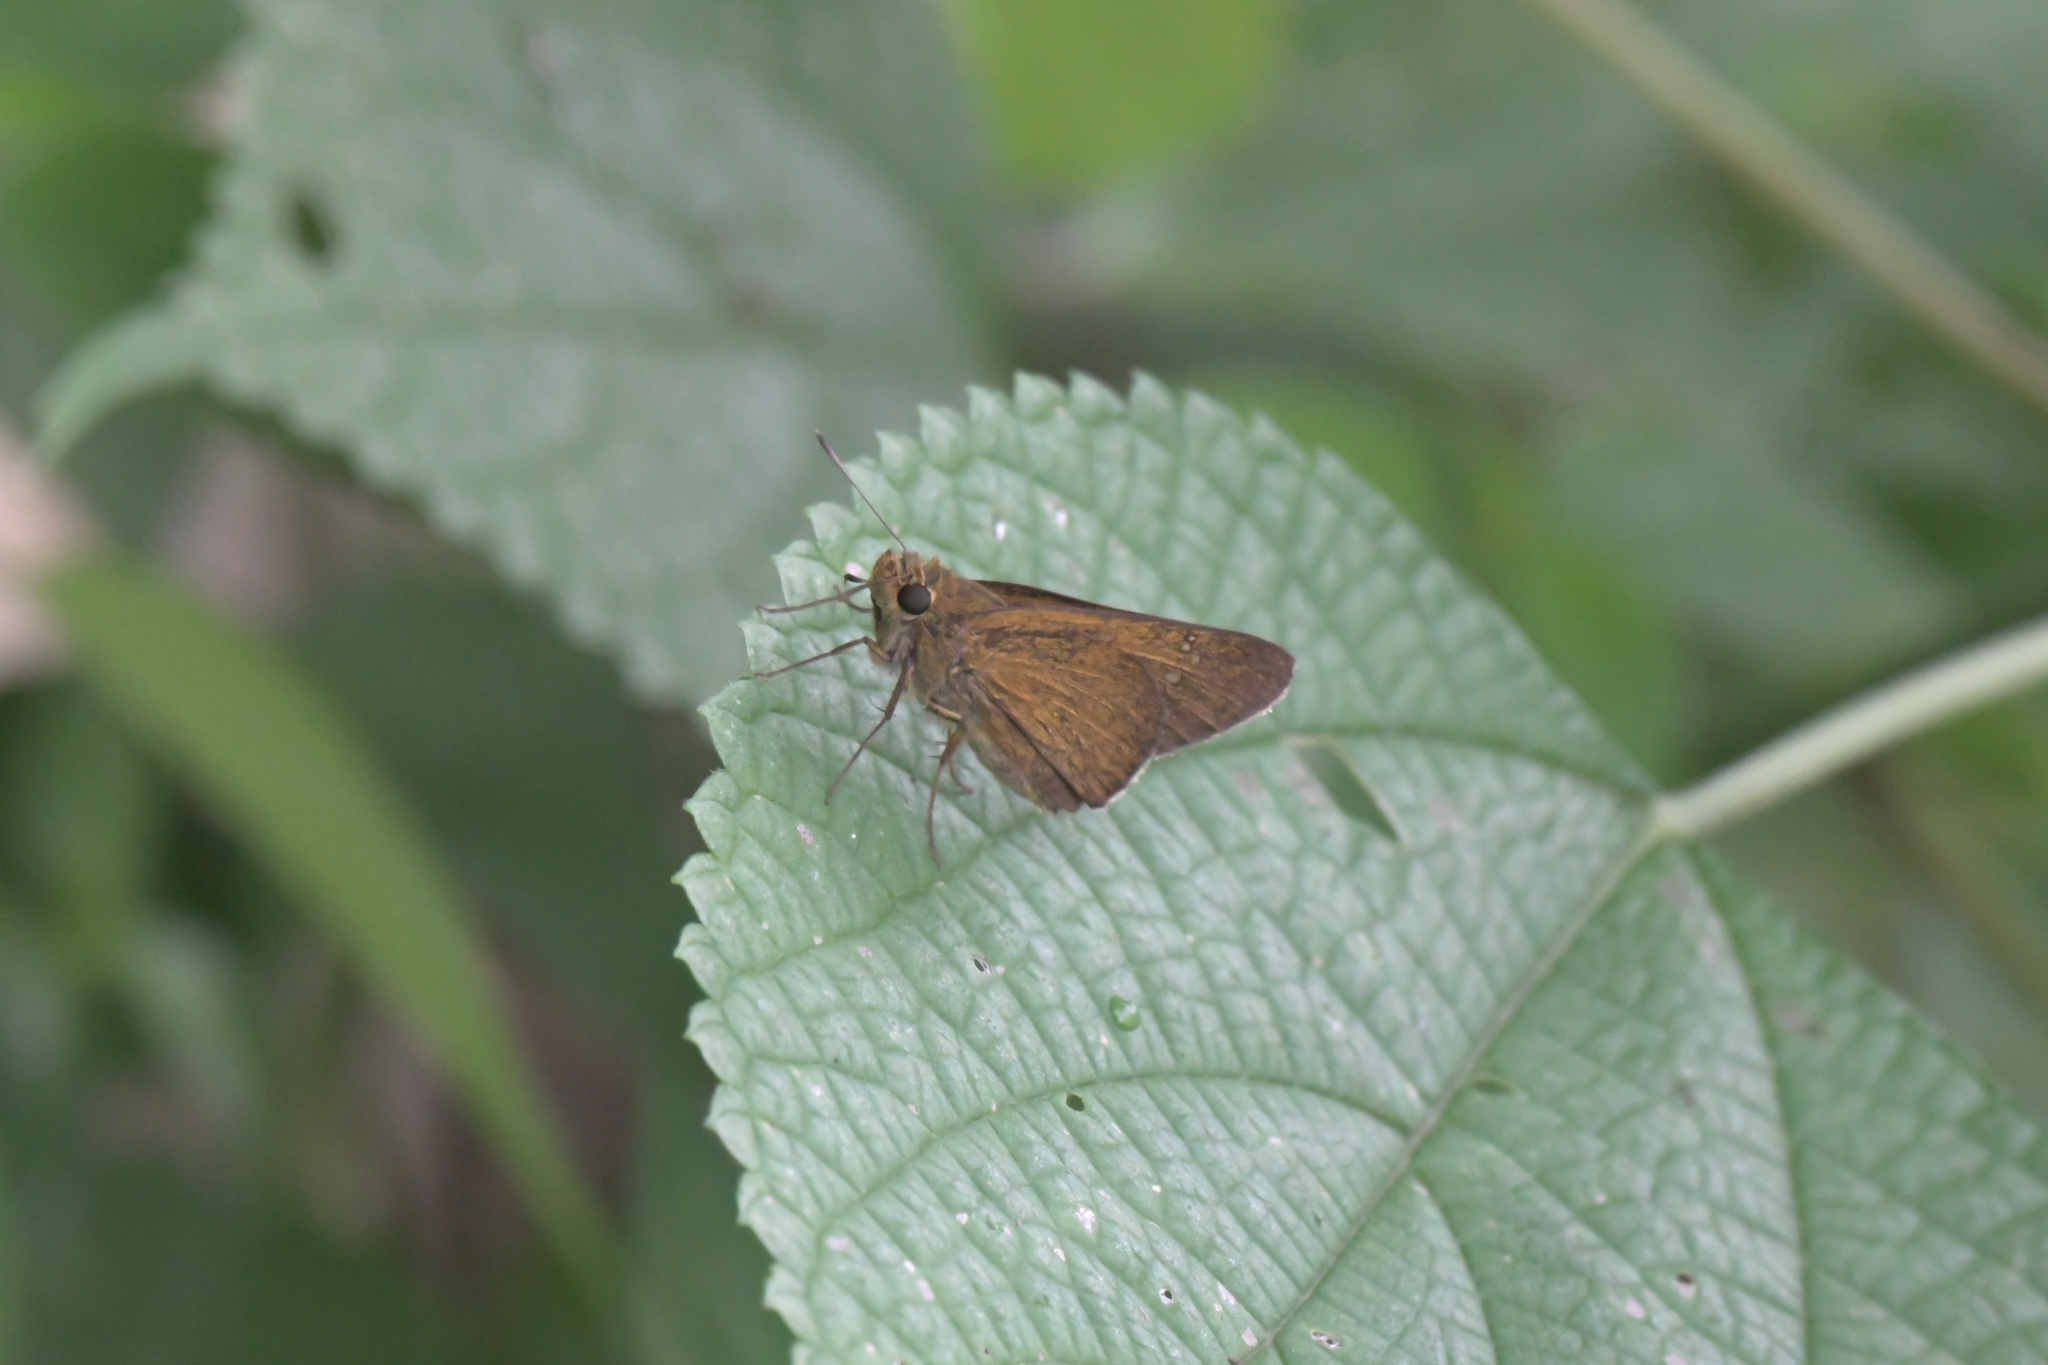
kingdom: Animalia
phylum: Arthropoda
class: Insecta
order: Lepidoptera
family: Hesperiidae
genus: Baoris
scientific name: Baoris leechi
